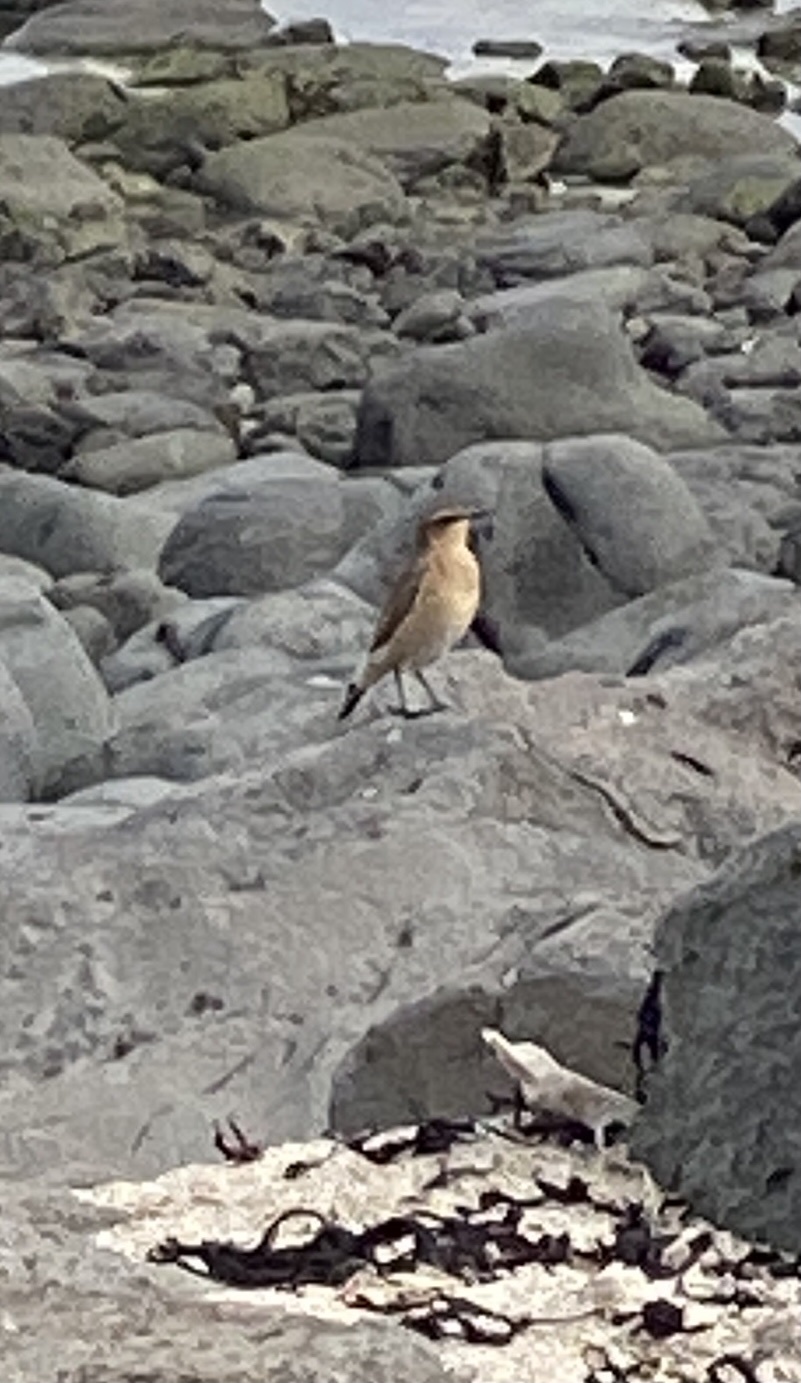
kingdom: Animalia
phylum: Chordata
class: Aves
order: Passeriformes
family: Muscicapidae
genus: Oenanthe
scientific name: Oenanthe oenanthe
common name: Northern wheatear
